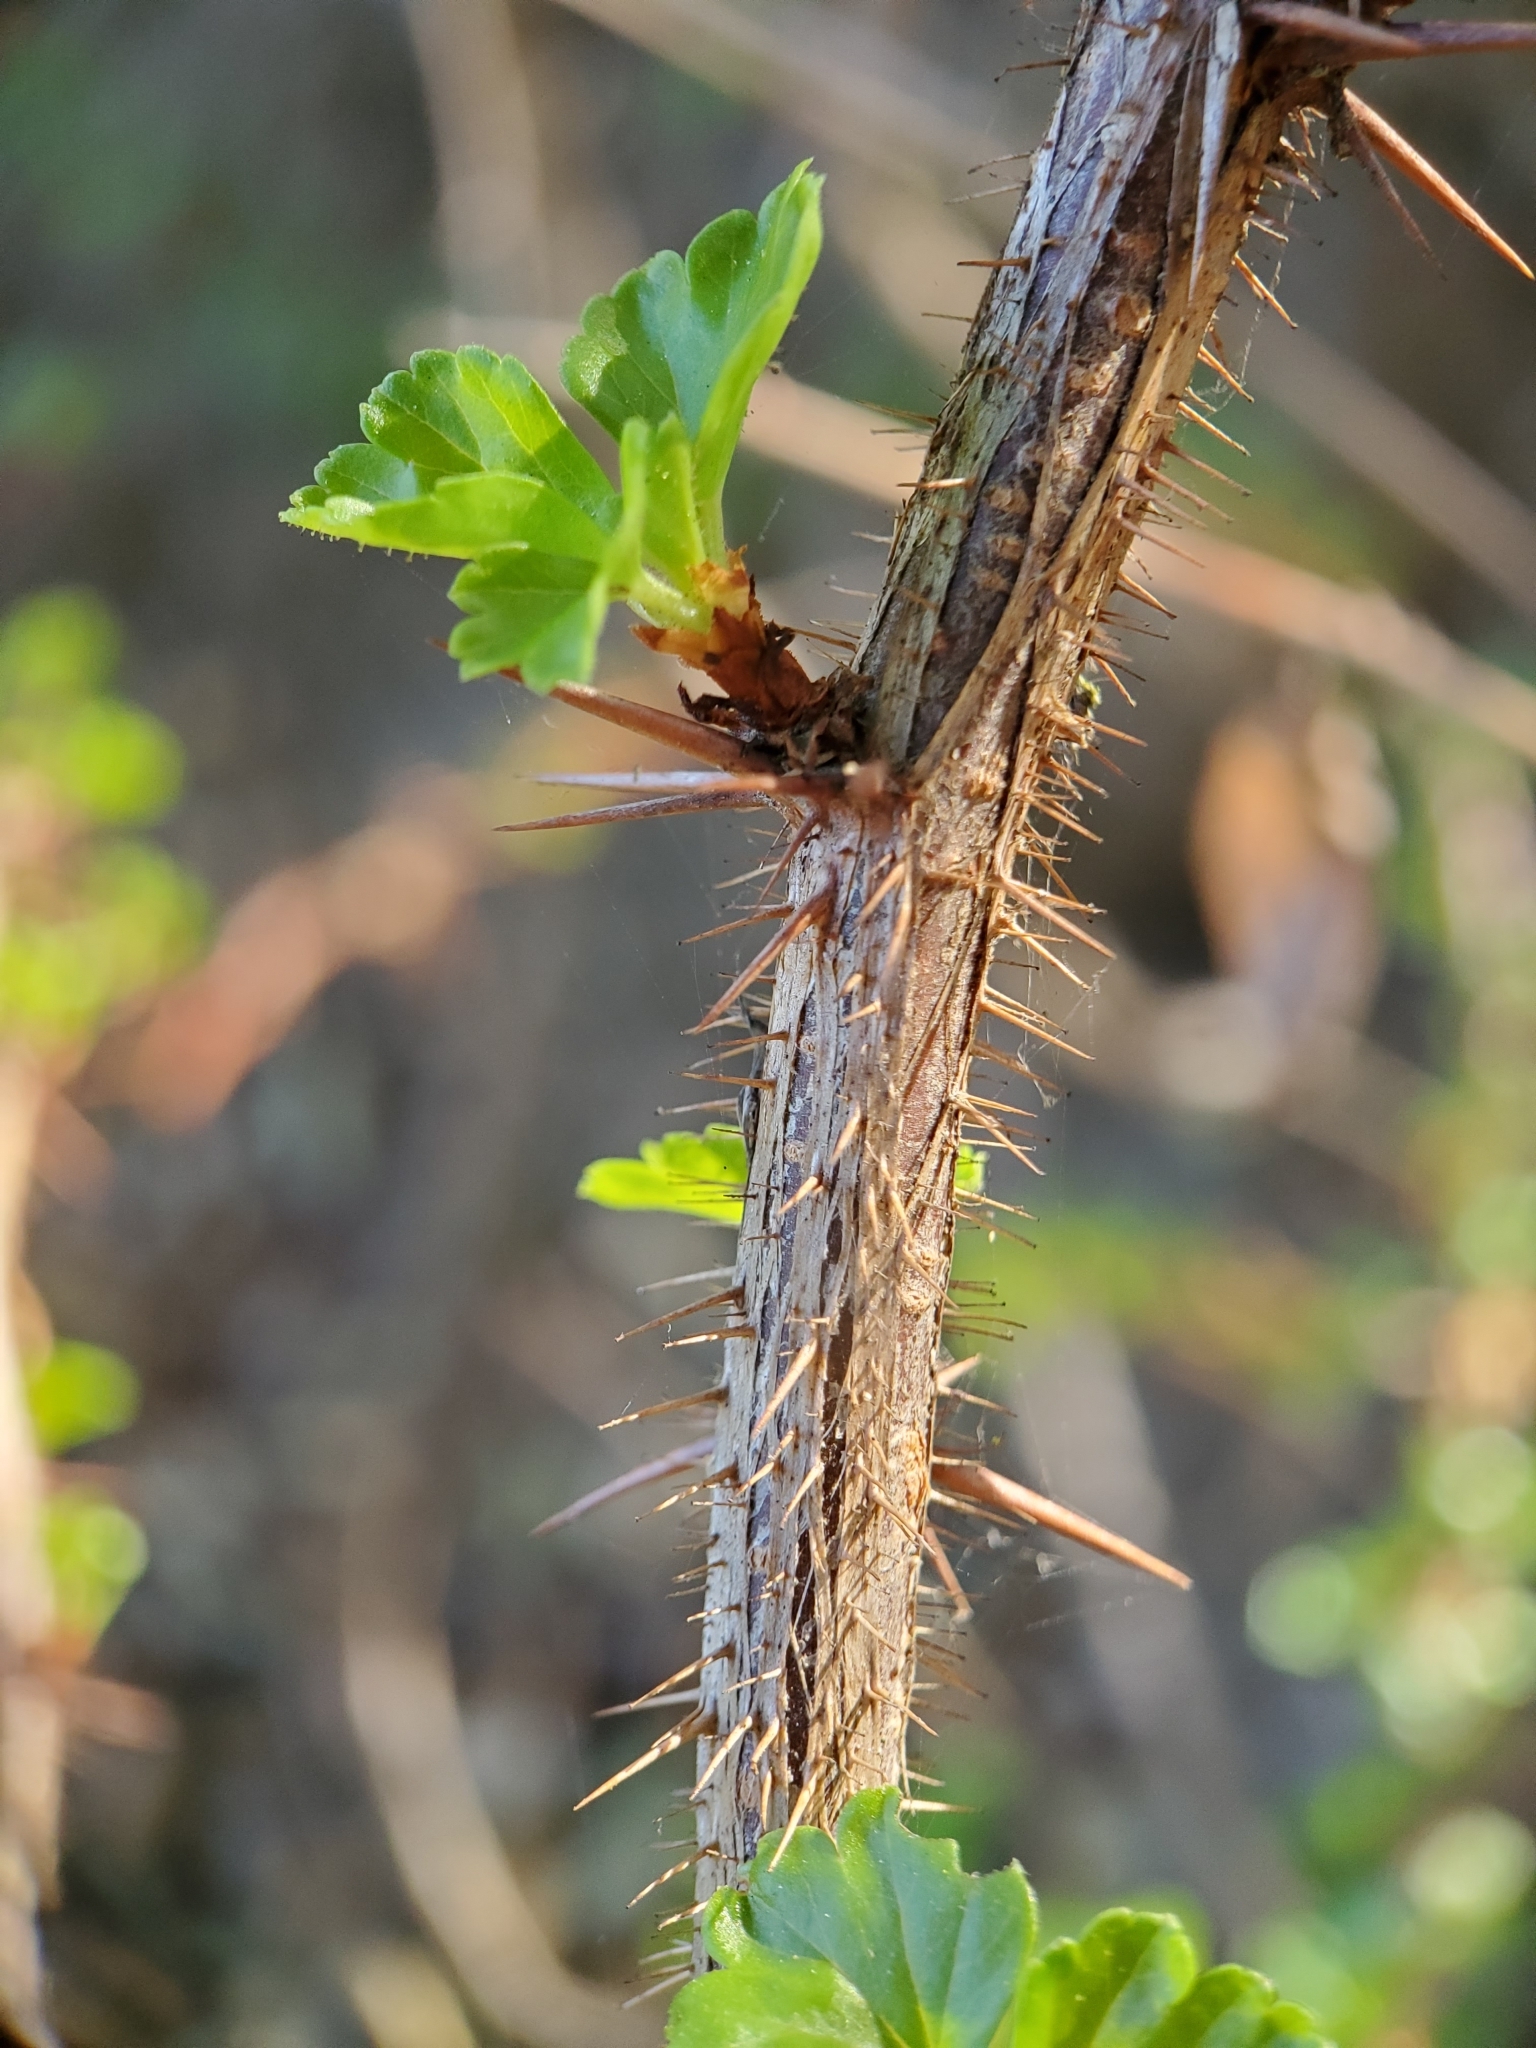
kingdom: Plantae
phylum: Tracheophyta
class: Magnoliopsida
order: Saxifragales
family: Grossulariaceae
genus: Ribes
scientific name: Ribes speciosum
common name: Fuchsia-flower gooseberry
